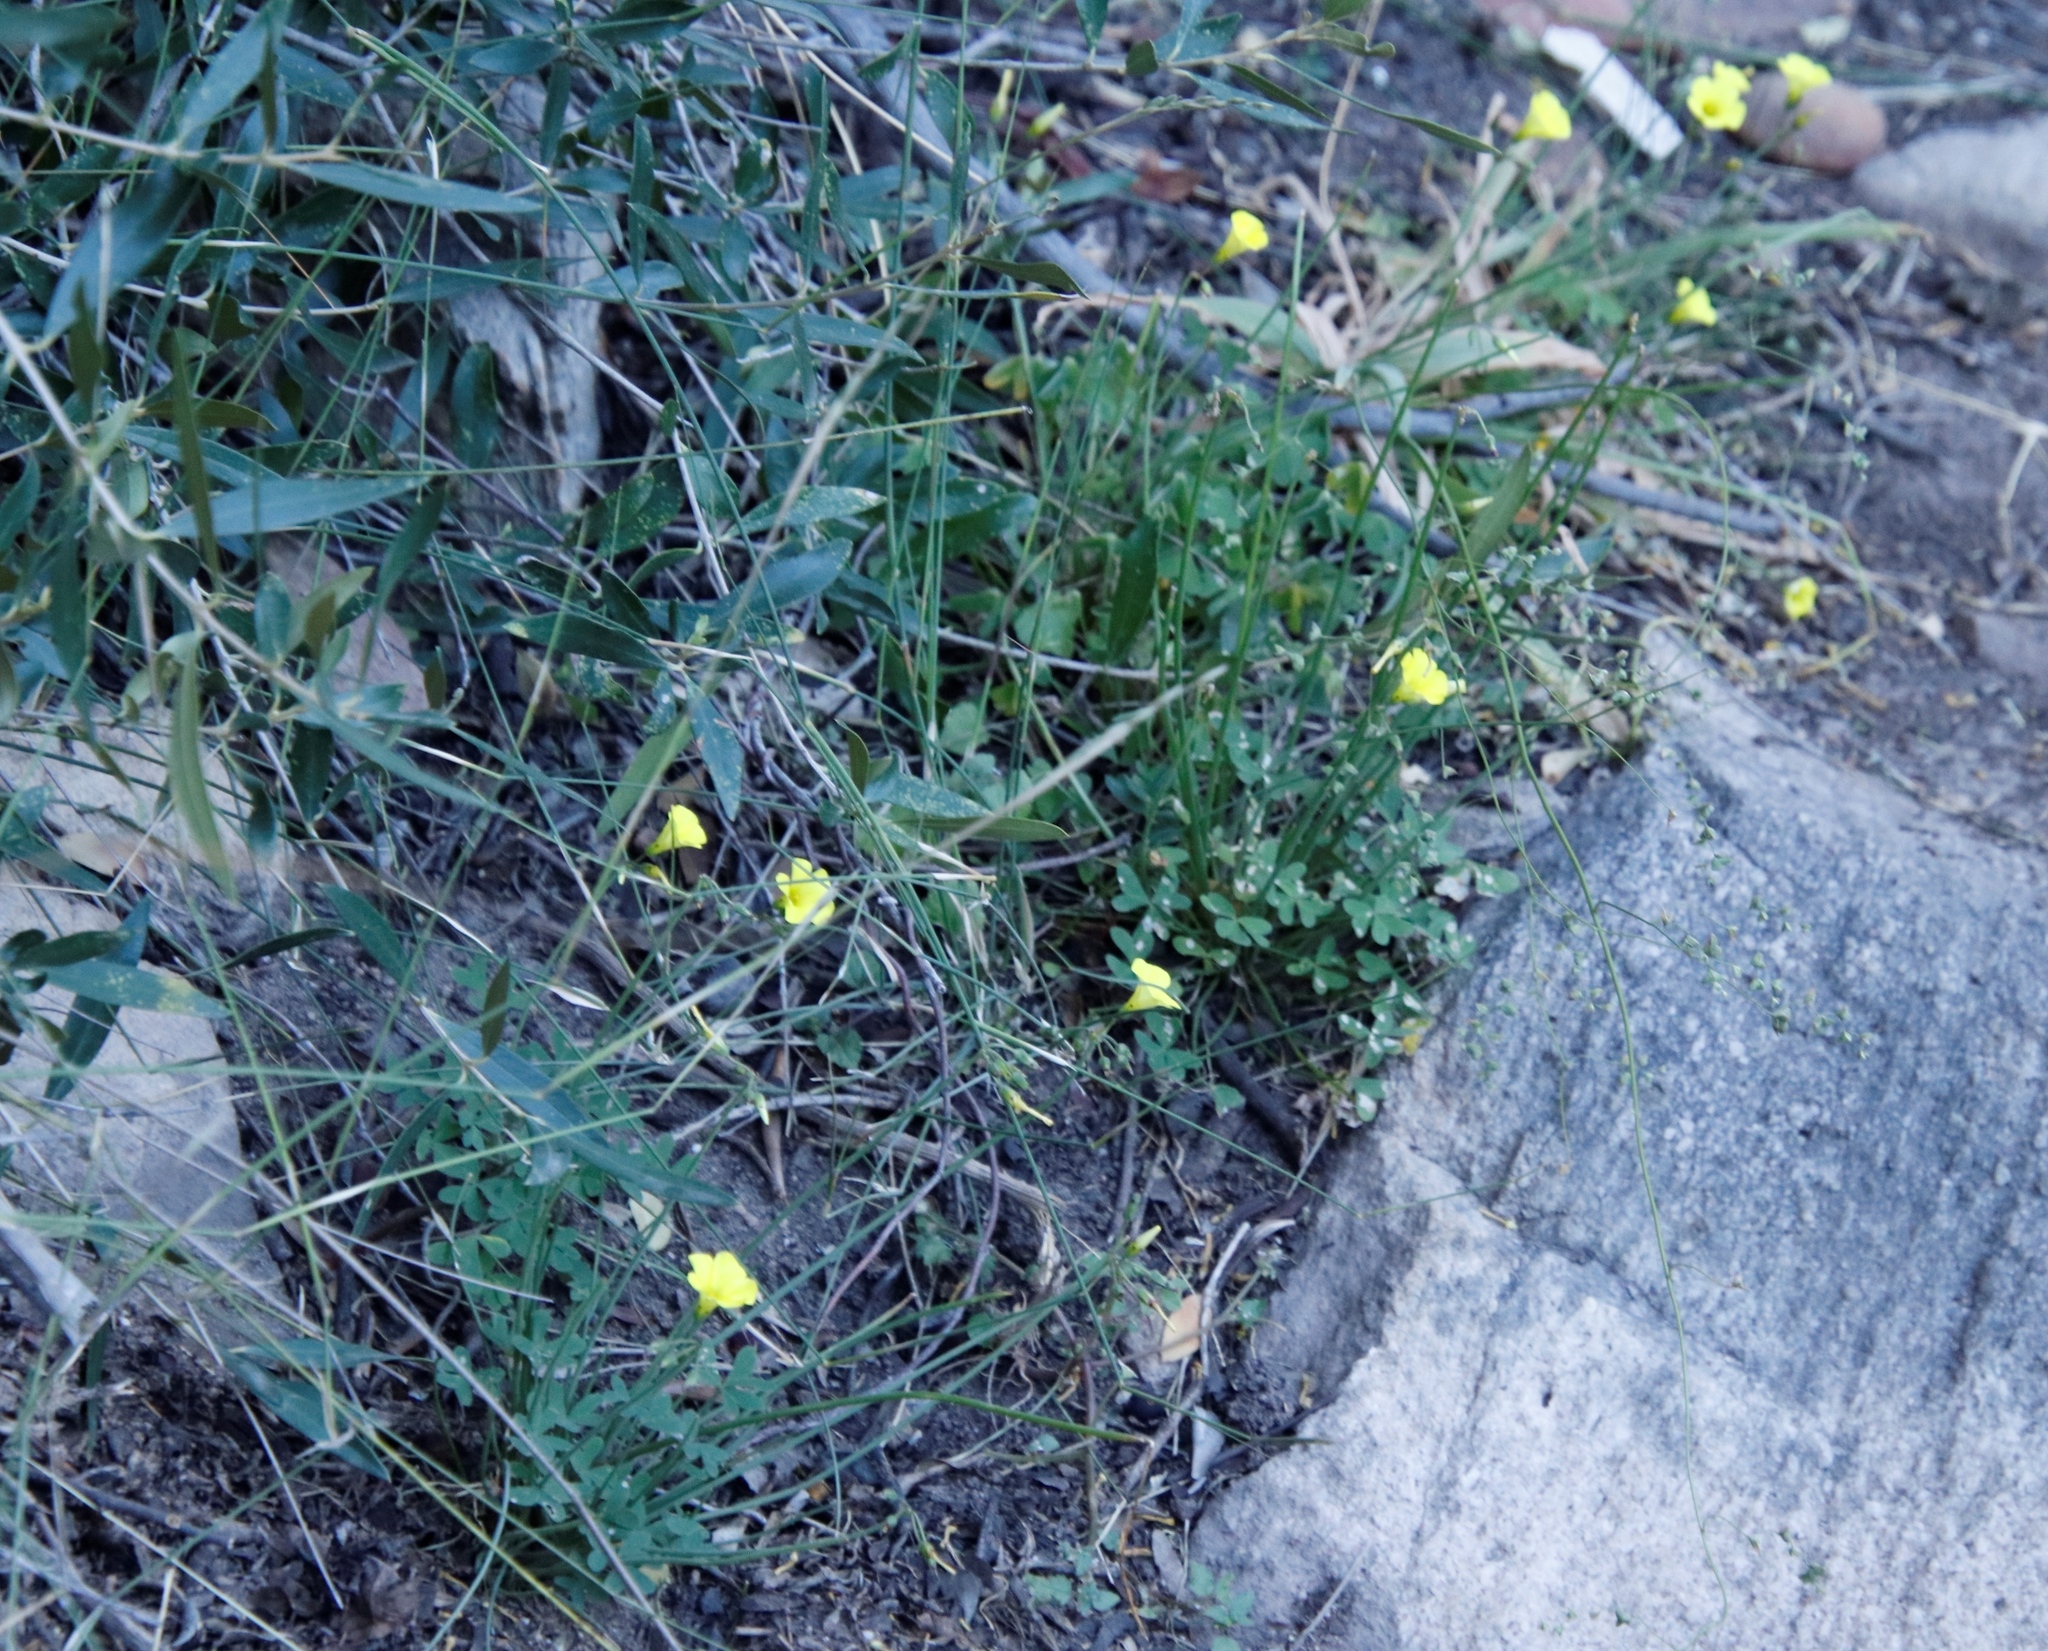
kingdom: Plantae
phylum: Tracheophyta
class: Magnoliopsida
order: Oxalidales
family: Oxalidaceae
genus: Oxalis
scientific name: Oxalis pes-caprae
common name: Bermuda-buttercup
